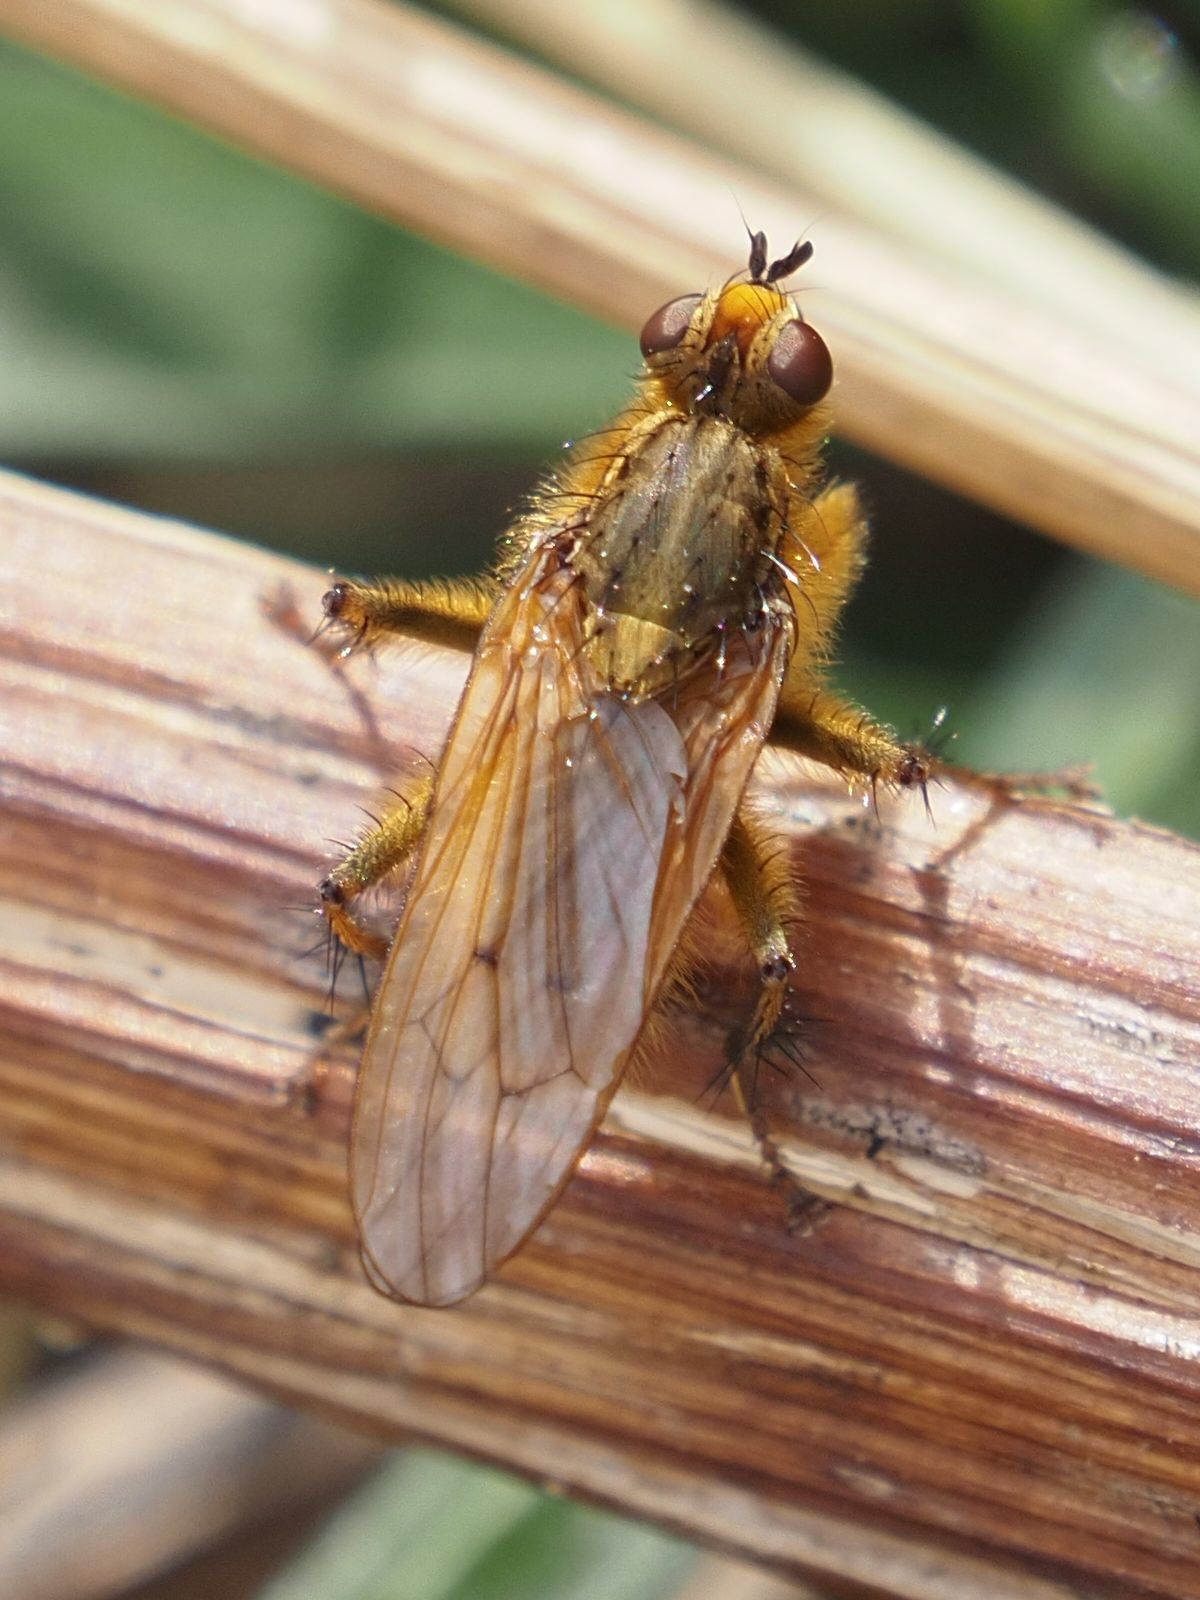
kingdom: Animalia
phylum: Arthropoda
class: Insecta
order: Diptera
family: Scathophagidae
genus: Scathophaga
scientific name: Scathophaga stercoraria
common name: Yellow dung fly
